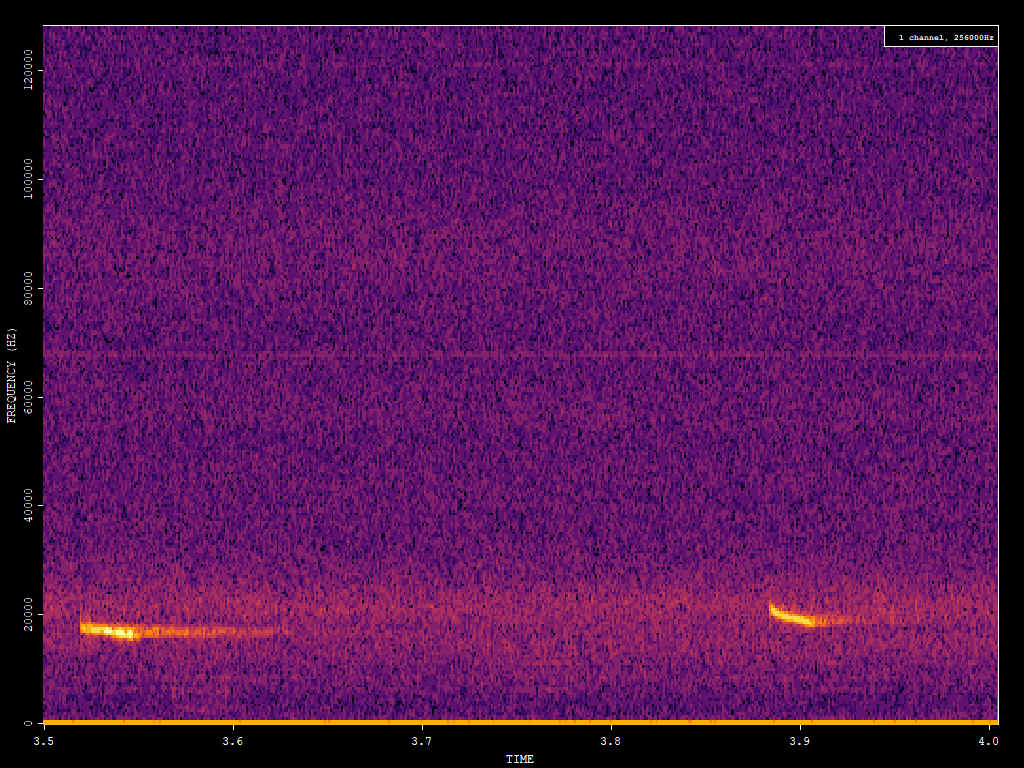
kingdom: Animalia
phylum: Chordata
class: Mammalia
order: Chiroptera
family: Vespertilionidae
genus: Nyctalus
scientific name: Nyctalus noctula
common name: Noctule
